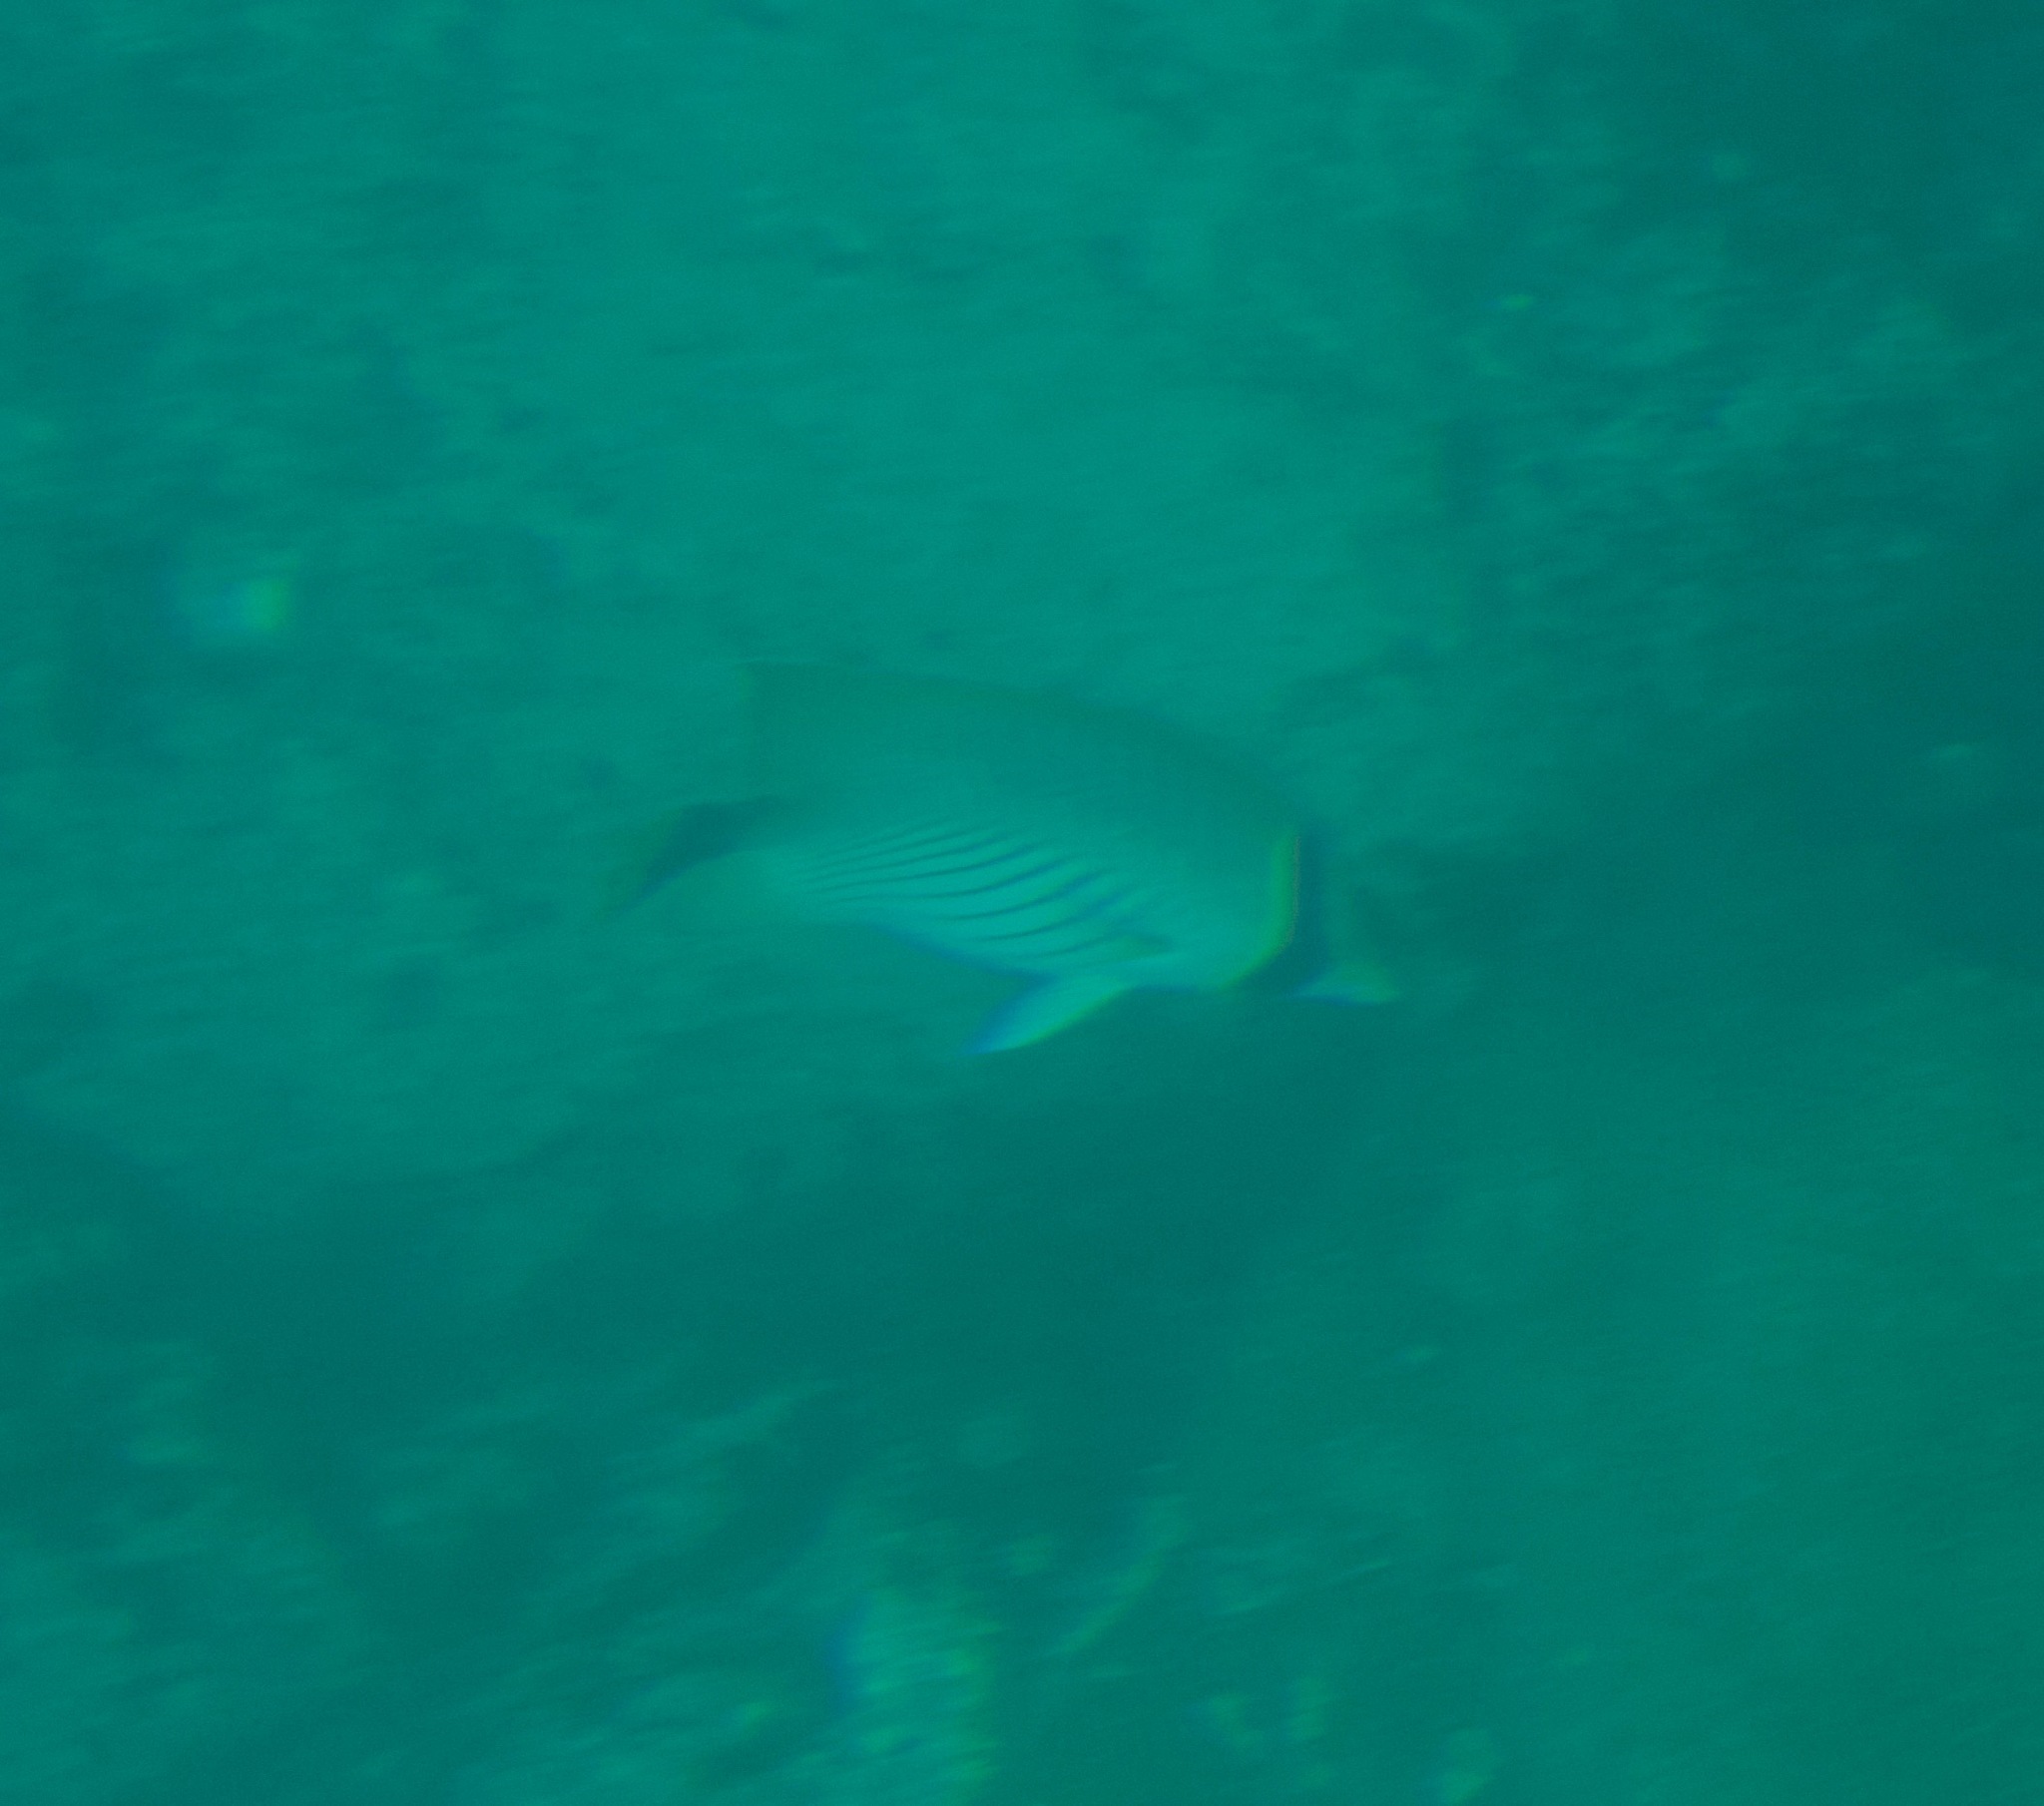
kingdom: Animalia
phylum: Chordata
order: Perciformes
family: Chaetodontidae
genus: Chaetodon
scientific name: Chaetodon trifascialis
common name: Chevroned butterflyfish
